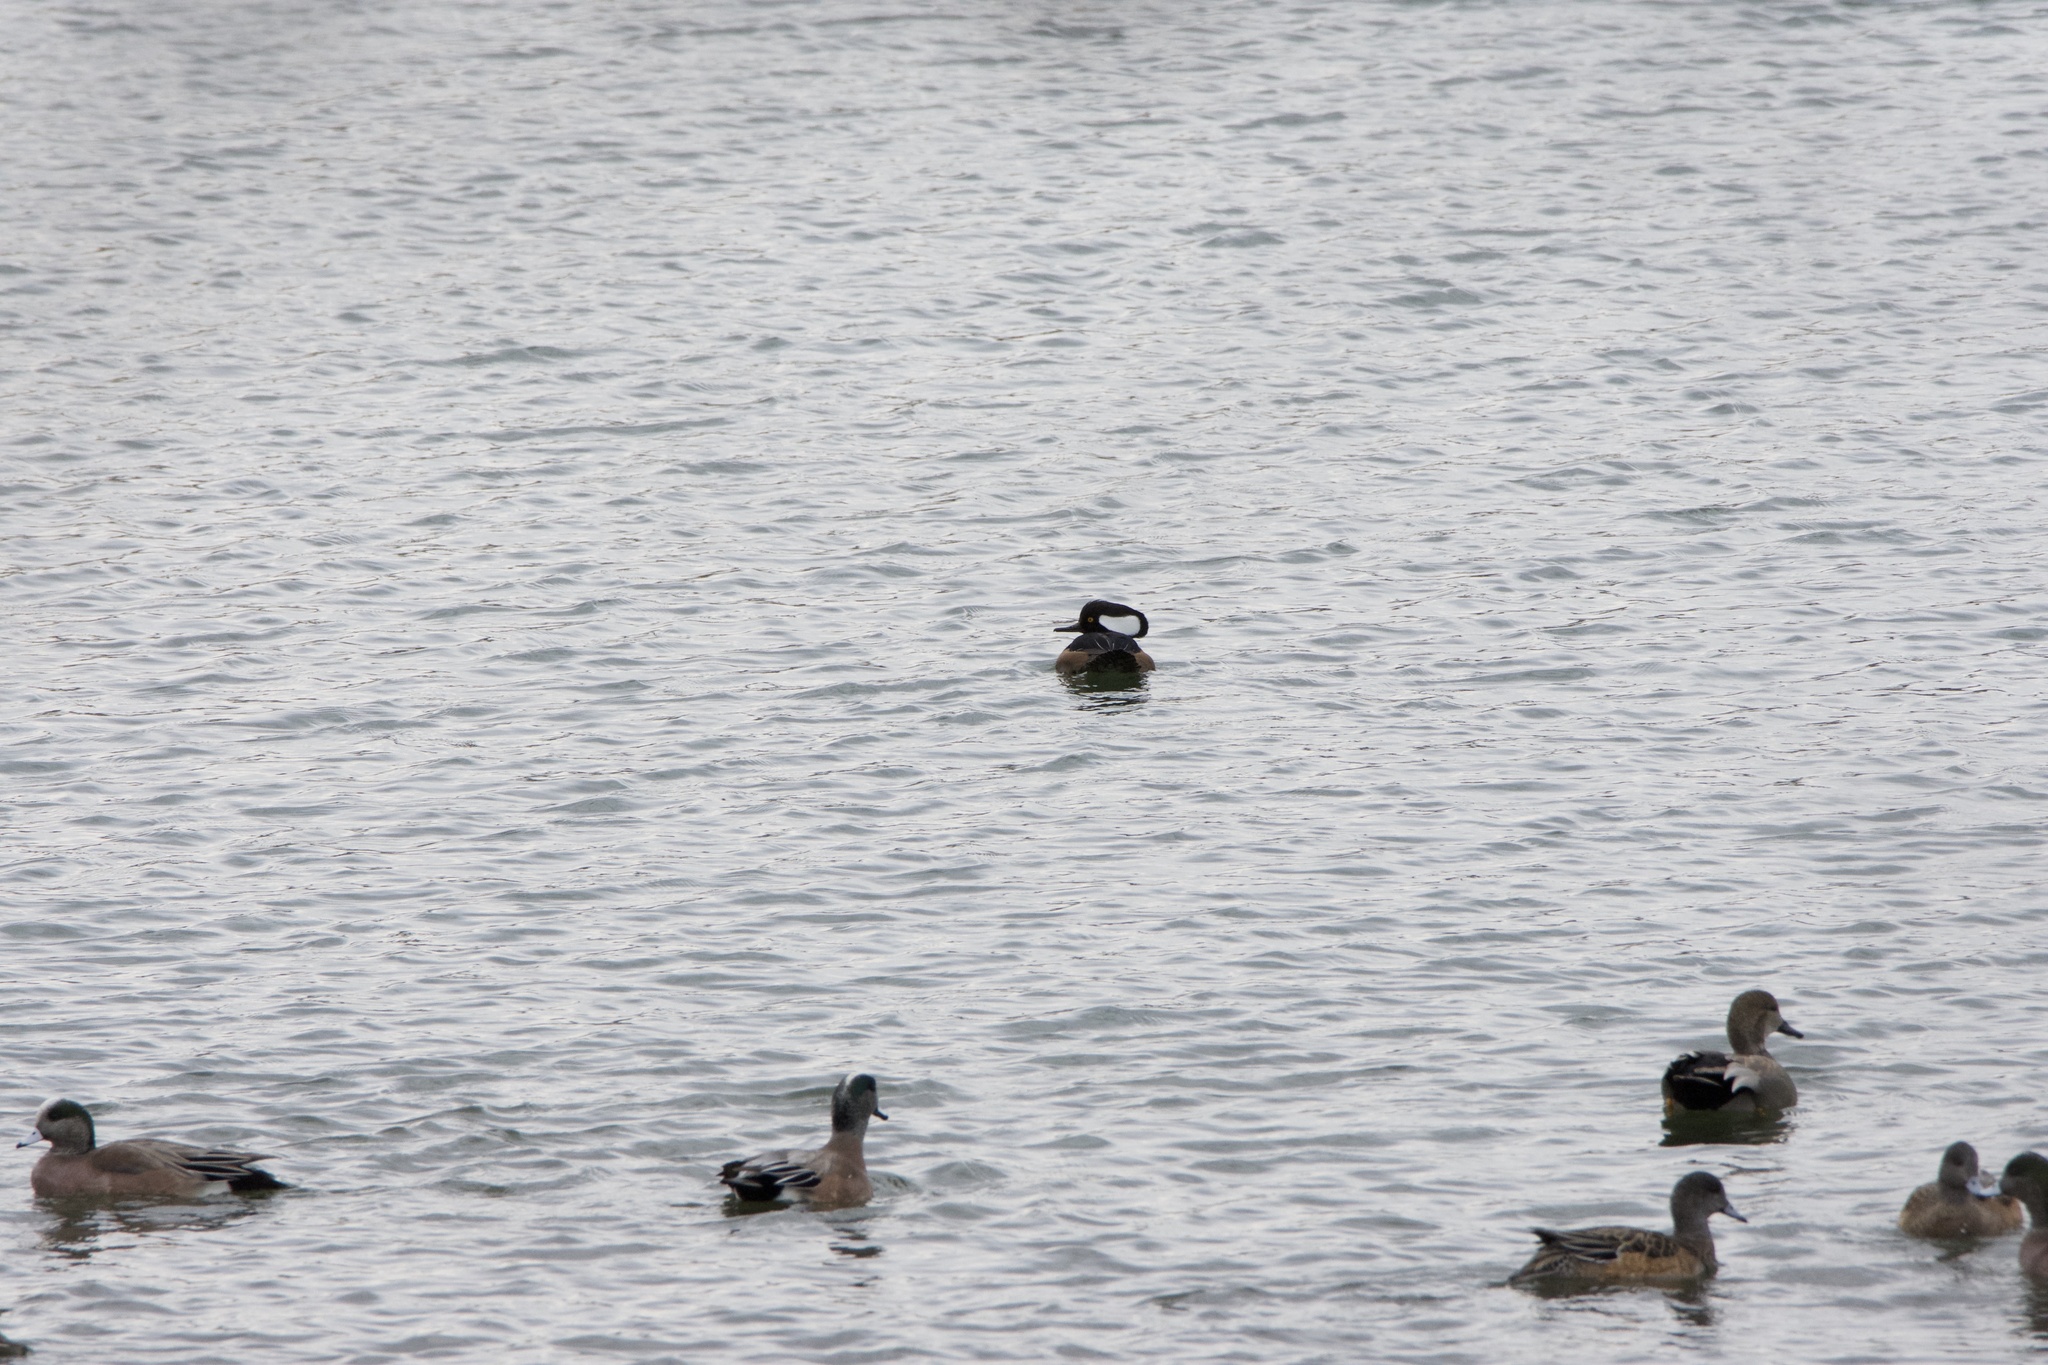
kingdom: Animalia
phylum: Chordata
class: Aves
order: Anseriformes
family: Anatidae
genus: Lophodytes
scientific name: Lophodytes cucullatus
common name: Hooded merganser
